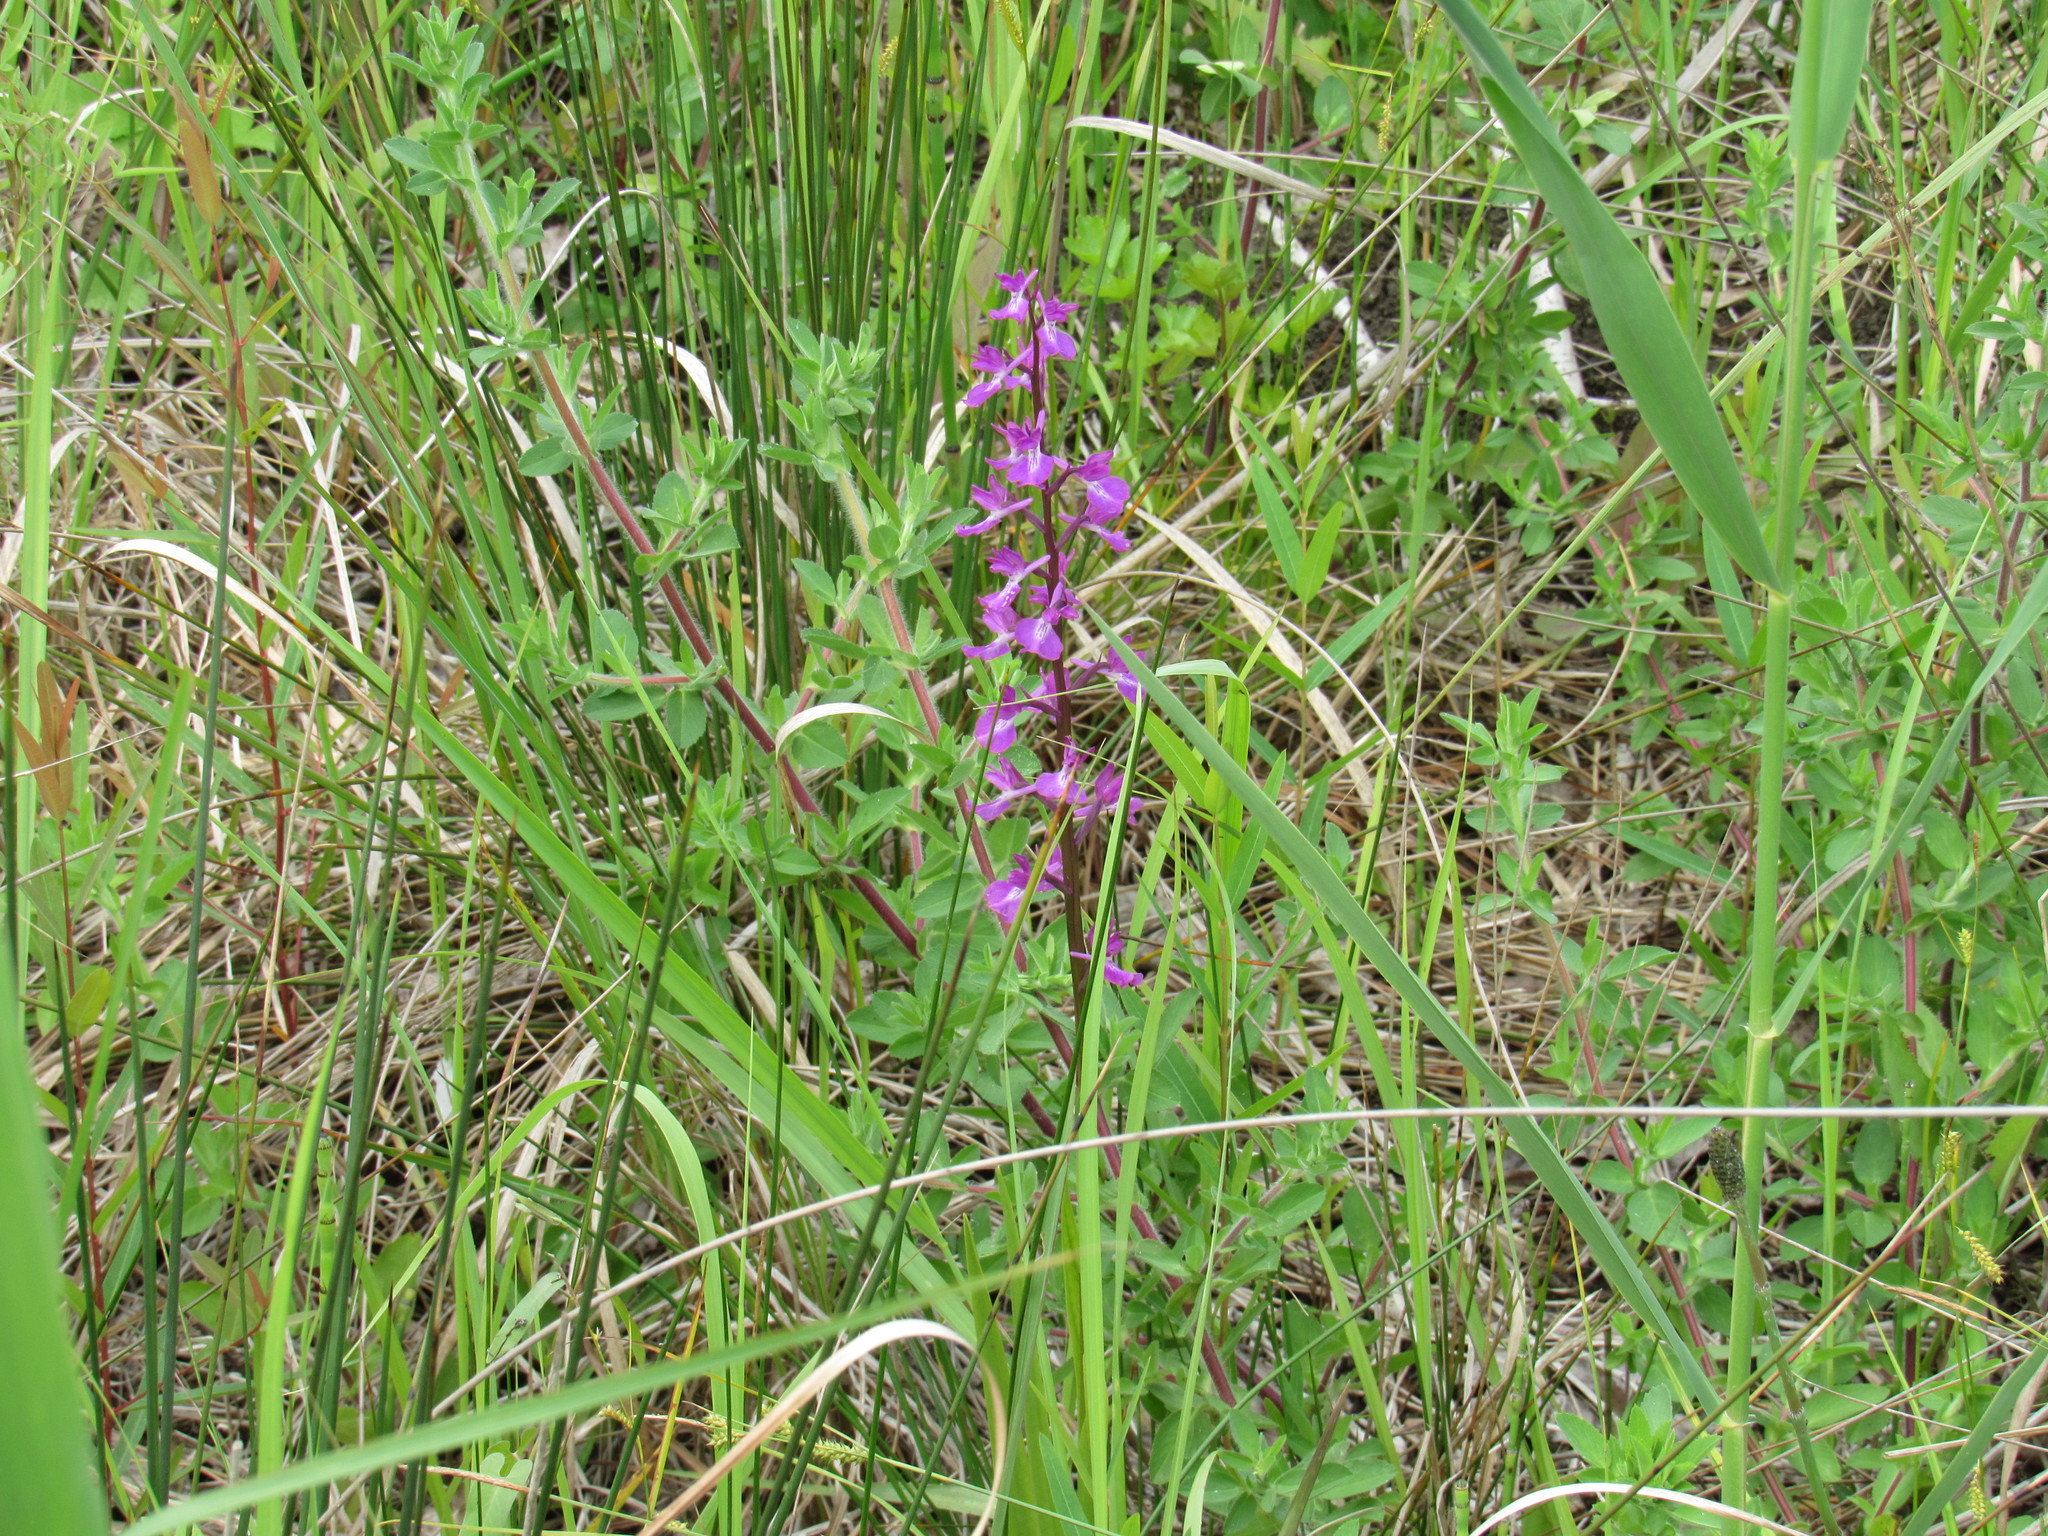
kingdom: Plantae
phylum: Tracheophyta
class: Liliopsida
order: Asparagales
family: Orchidaceae
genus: Anacamptis
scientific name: Anacamptis palustris
